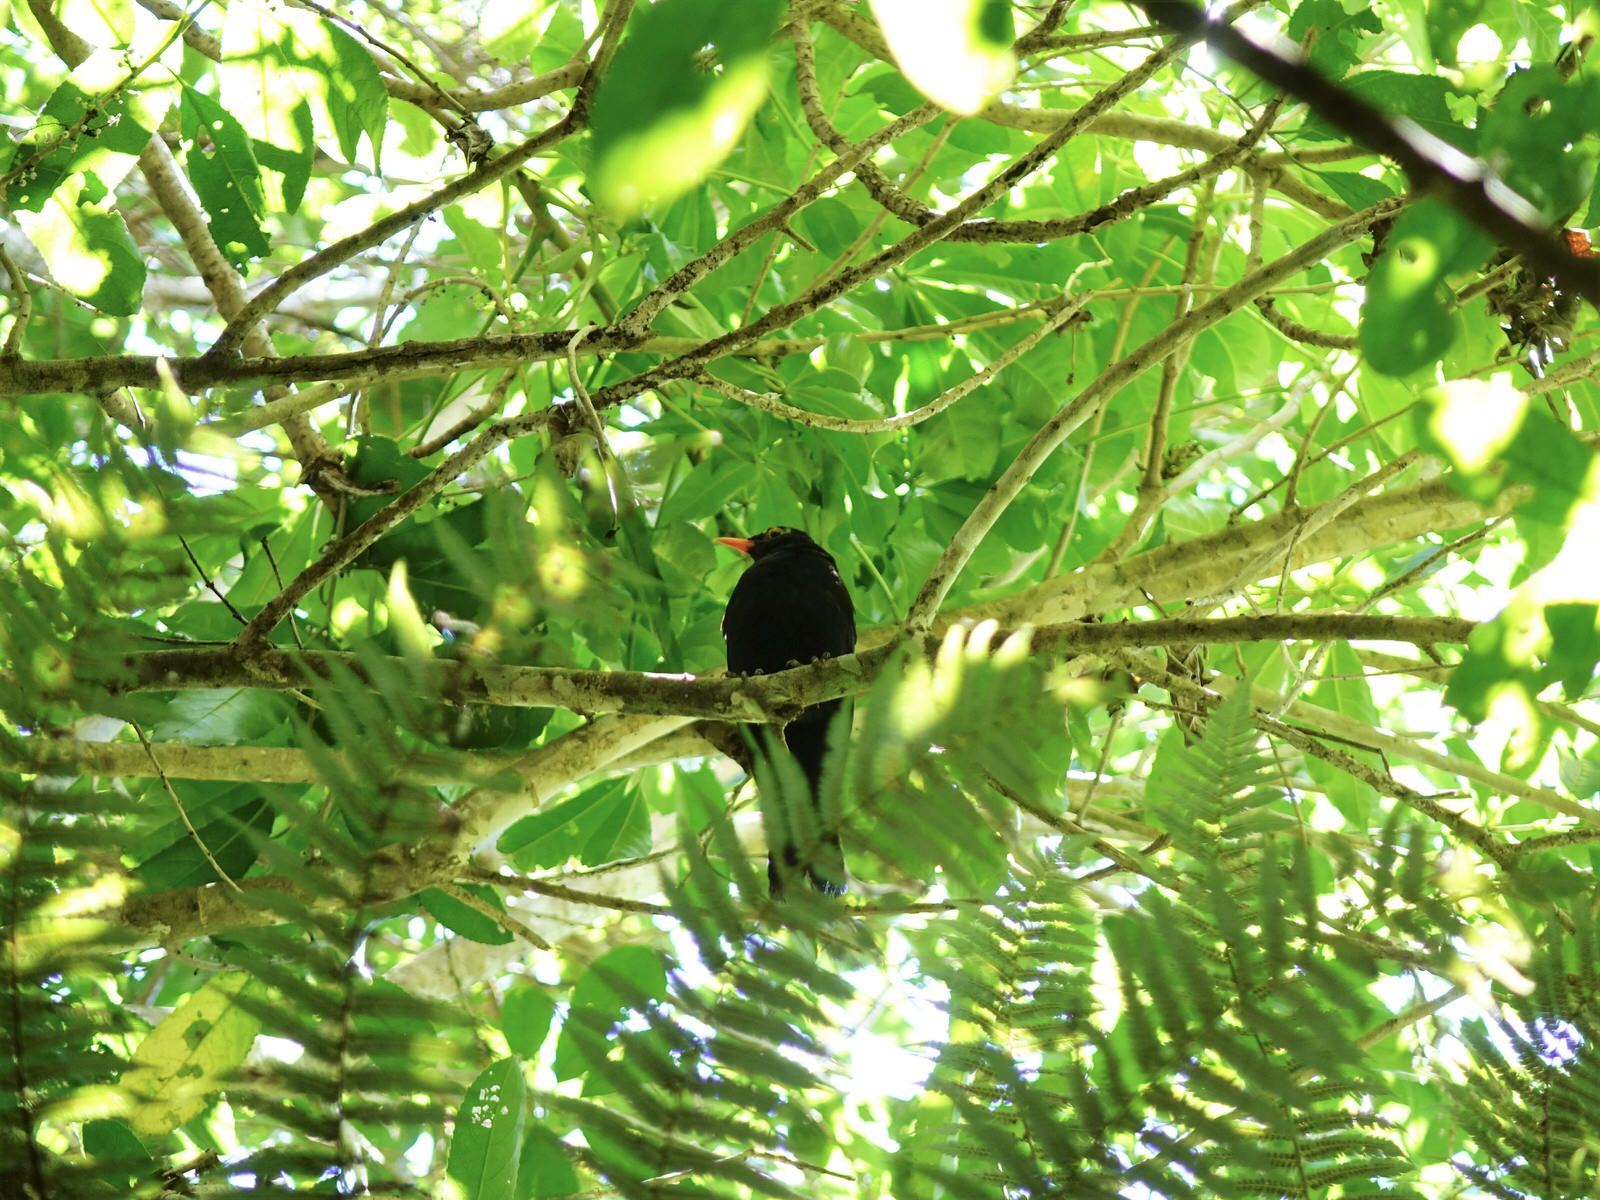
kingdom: Animalia
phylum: Chordata
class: Aves
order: Passeriformes
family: Turdidae
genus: Turdus
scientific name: Turdus merula
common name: Common blackbird
